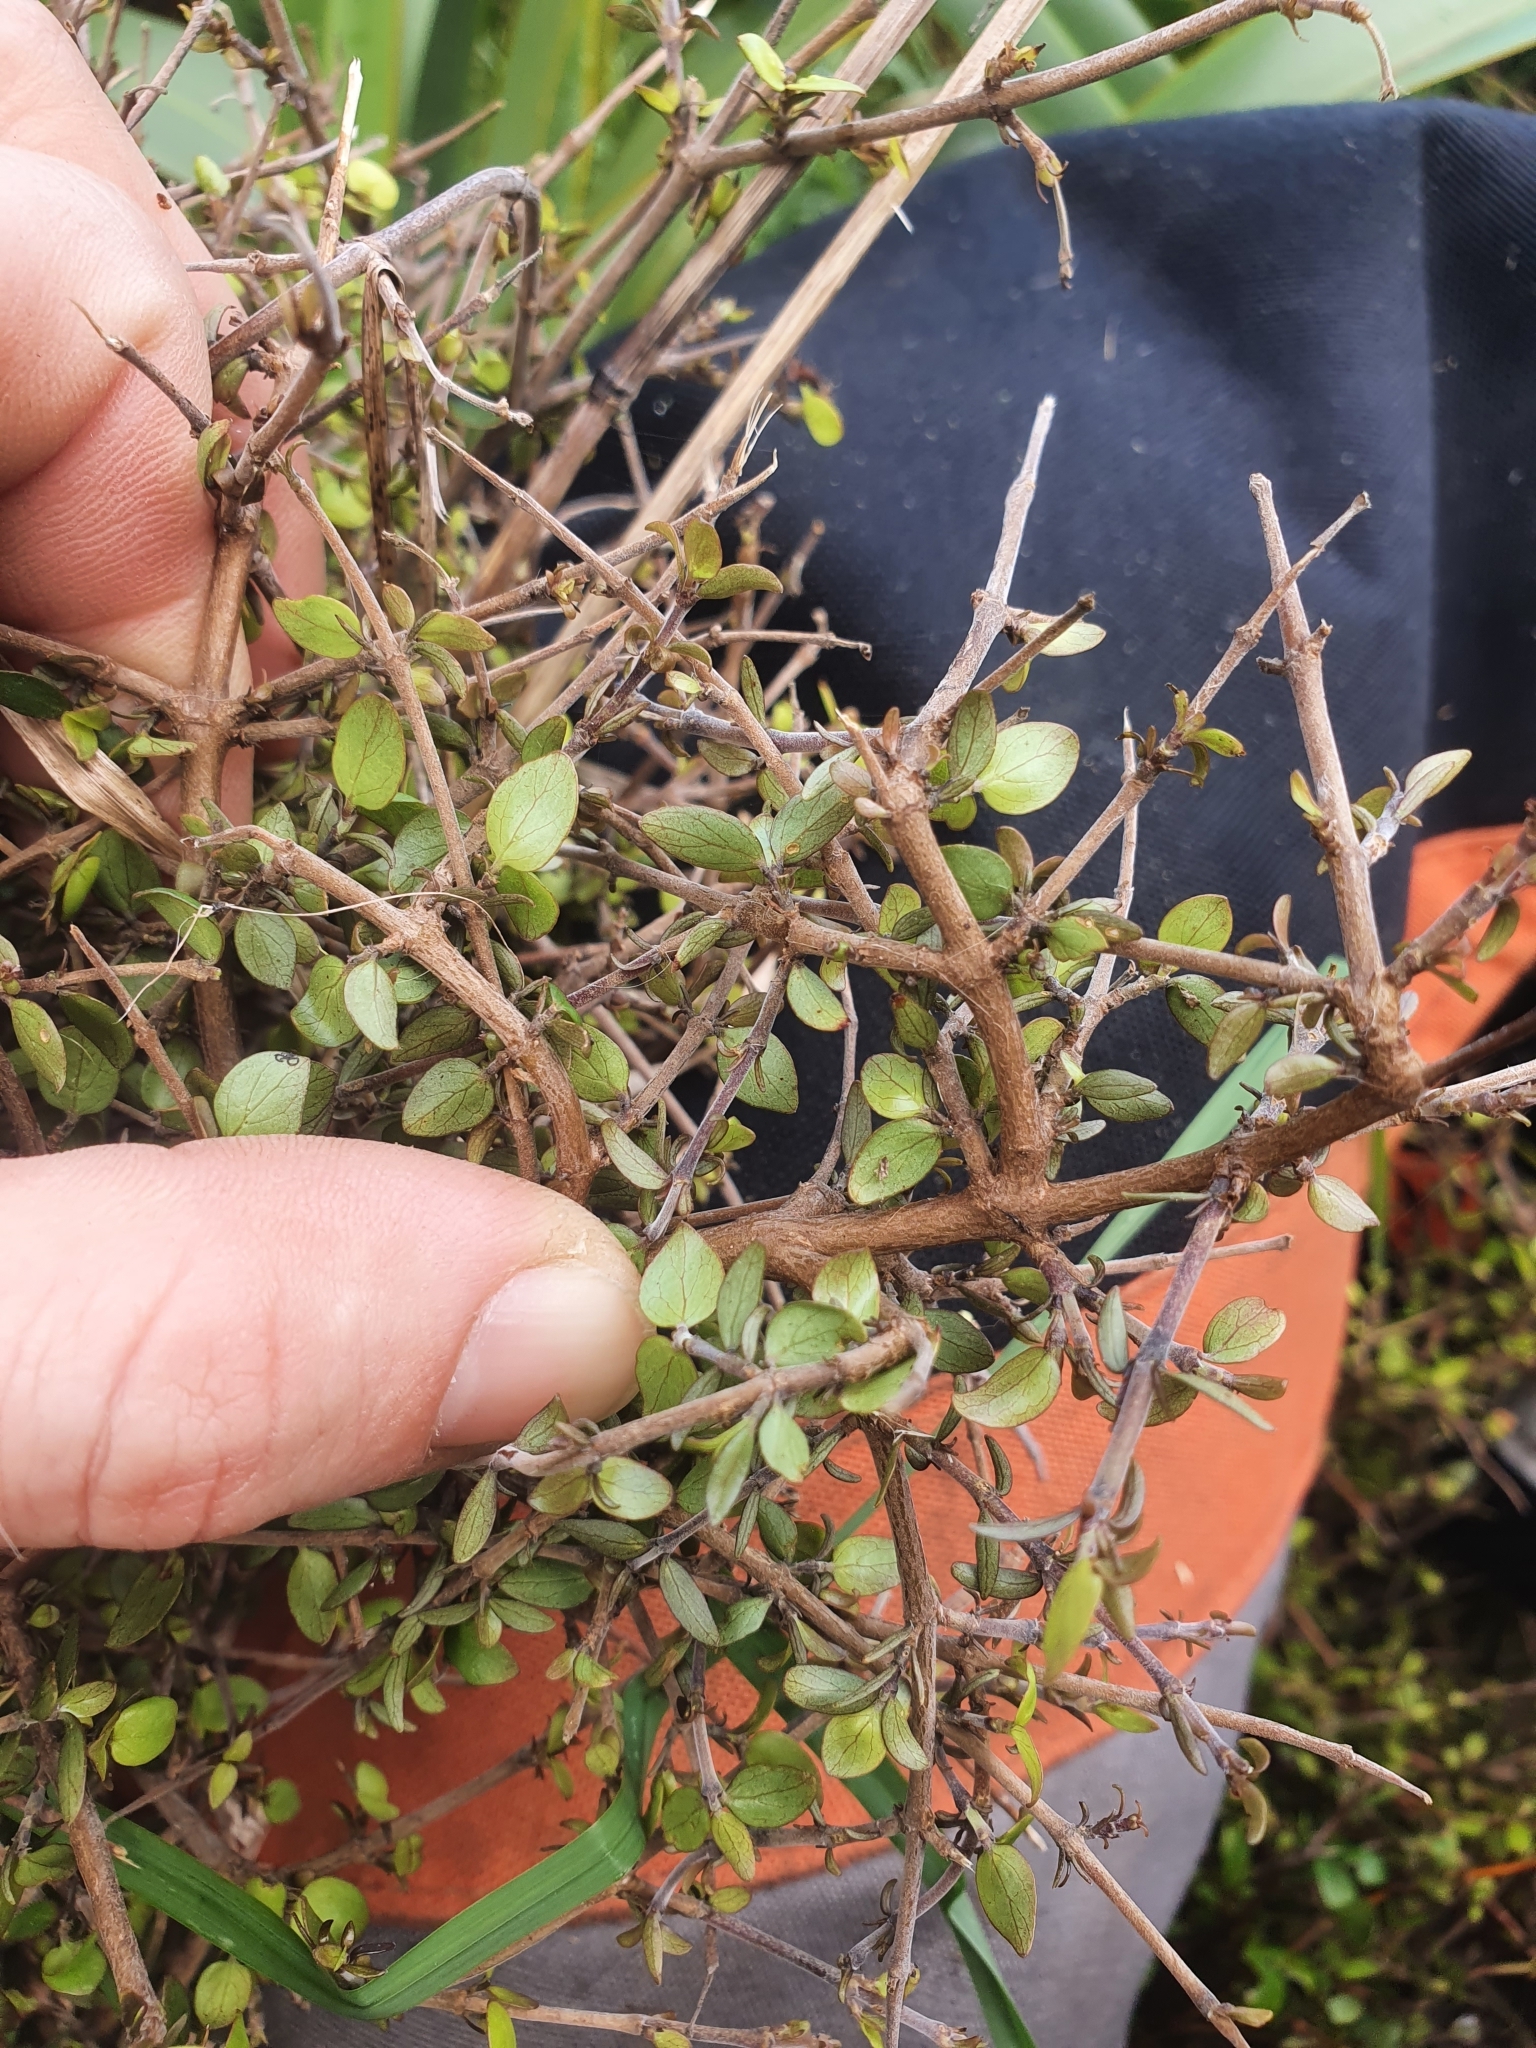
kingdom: Plantae
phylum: Tracheophyta
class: Magnoliopsida
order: Gentianales
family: Rubiaceae
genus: Coprosma
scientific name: Coprosma rhamnoides
